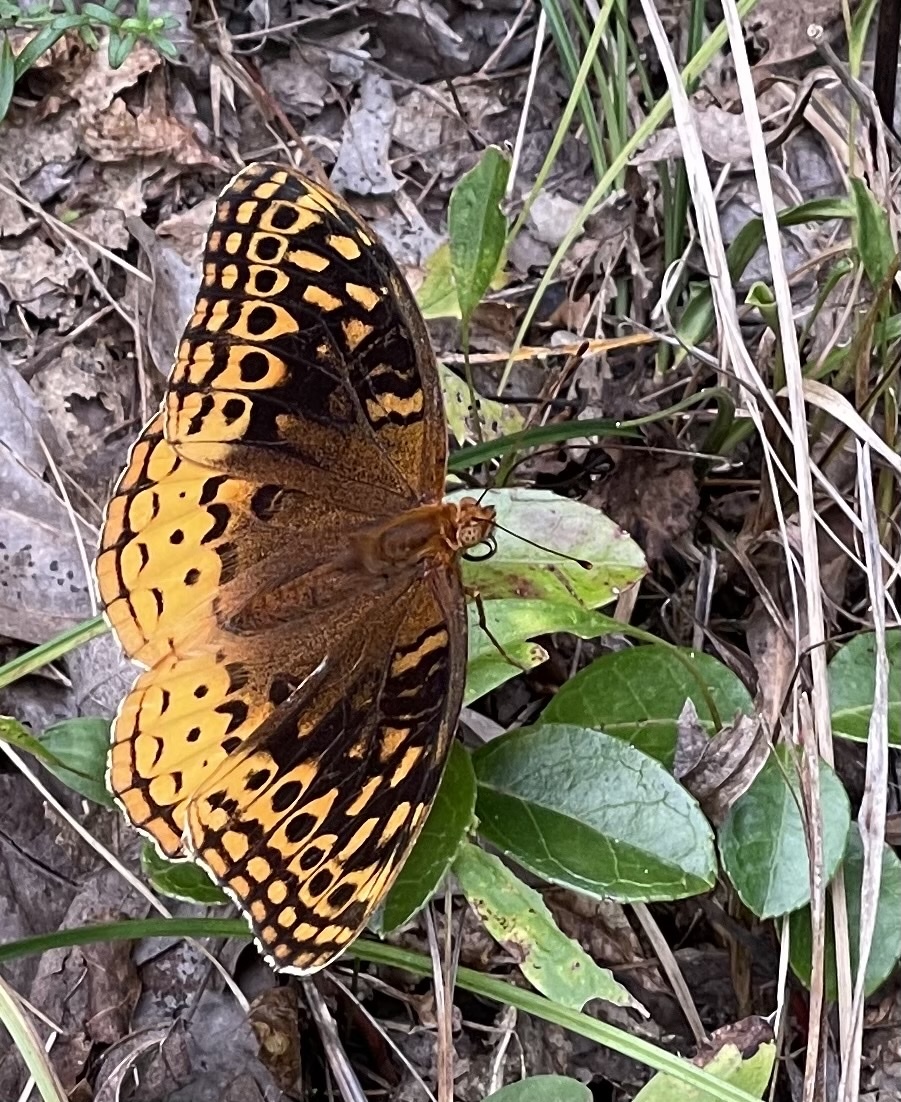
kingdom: Animalia
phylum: Arthropoda
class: Insecta
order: Lepidoptera
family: Nymphalidae
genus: Speyeria
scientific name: Speyeria cybele
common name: Great spangled fritillary
